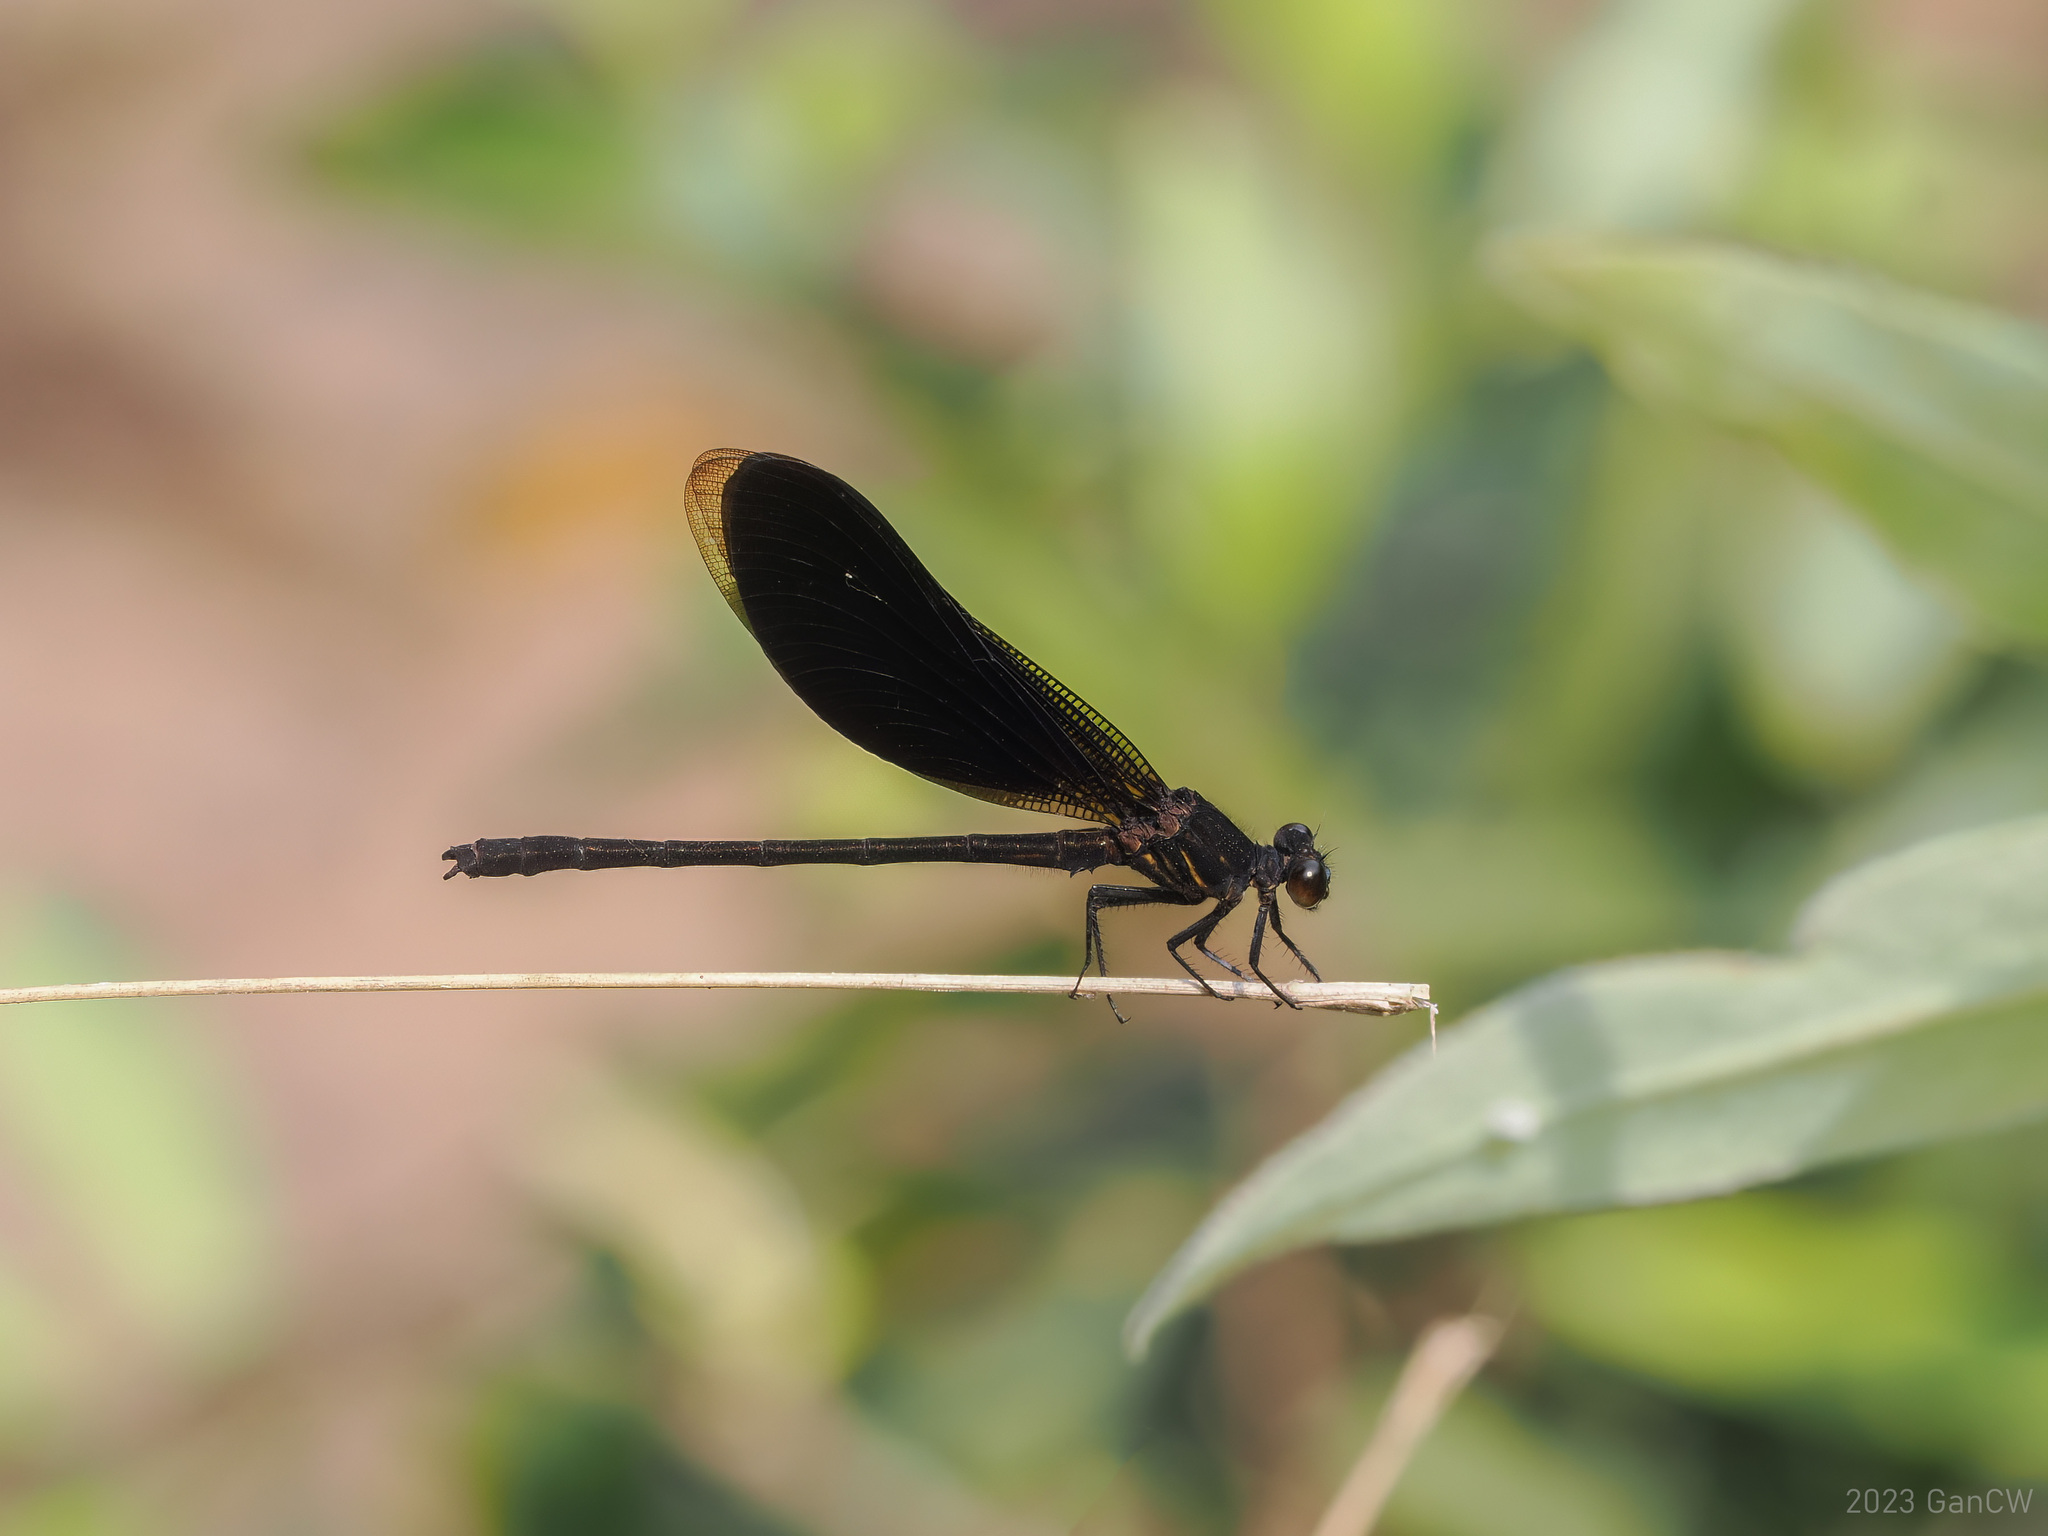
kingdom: Animalia
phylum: Arthropoda
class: Insecta
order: Odonata
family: Euphaeidae
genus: Euphaea
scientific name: Euphaea masoni
